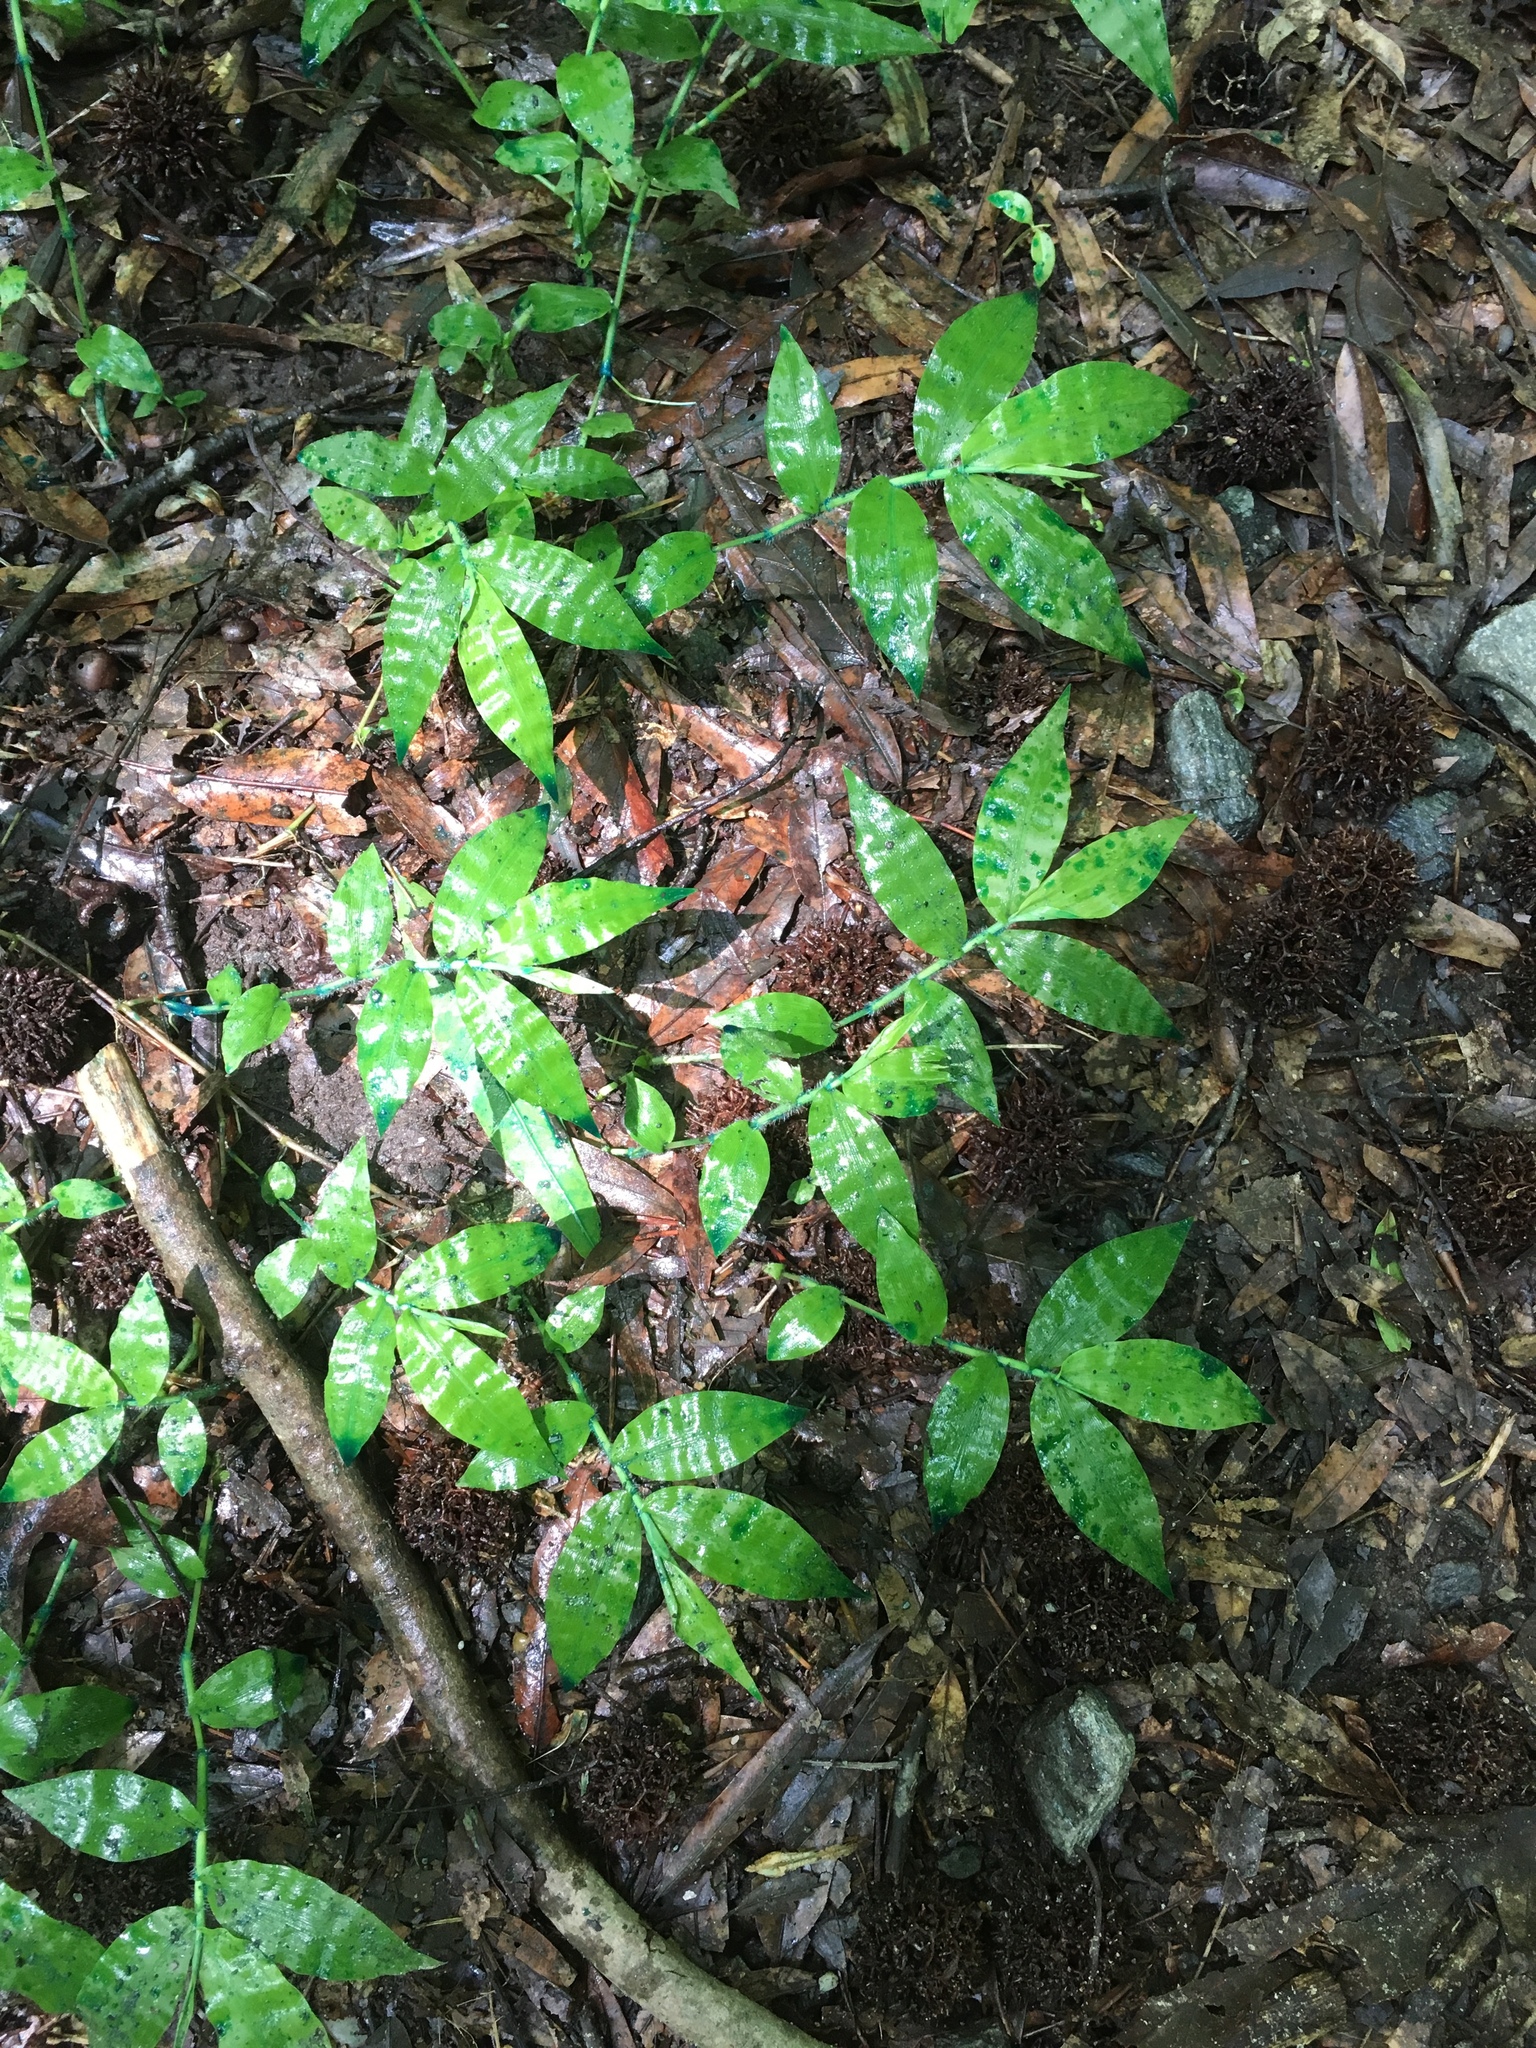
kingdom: Plantae
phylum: Tracheophyta
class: Liliopsida
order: Poales
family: Poaceae
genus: Oplismenus
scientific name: Oplismenus undulatifolius
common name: Wavyleaf basketgrass
